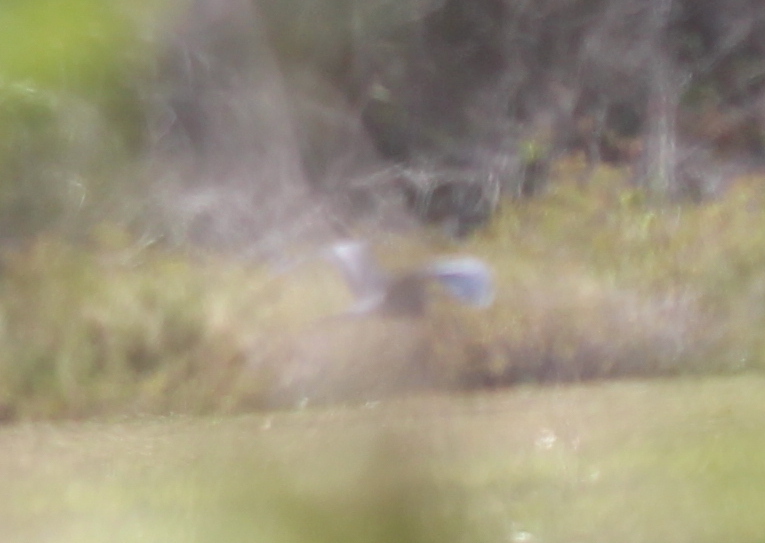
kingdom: Animalia
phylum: Chordata
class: Aves
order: Pelecaniformes
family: Ardeidae
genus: Ardea
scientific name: Ardea herodias
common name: Great blue heron
